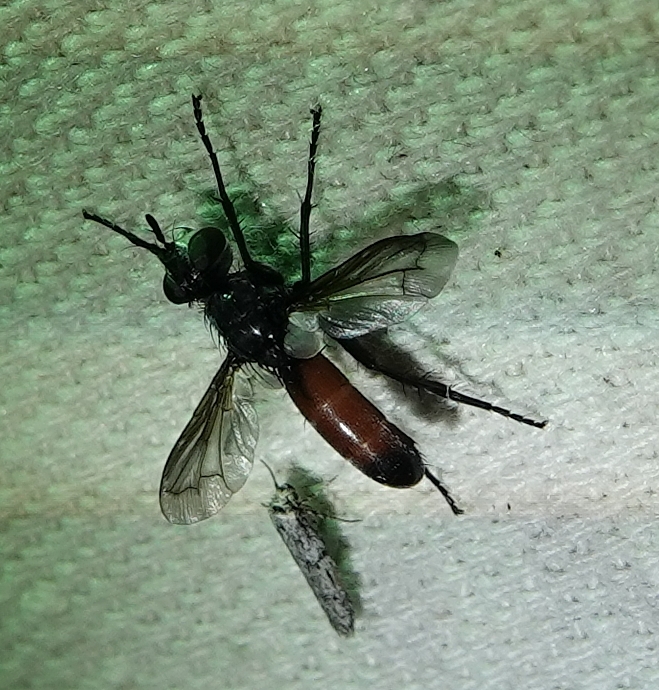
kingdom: Animalia
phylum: Arthropoda
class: Insecta
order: Diptera
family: Tachinidae
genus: Cylindromyia
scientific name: Cylindromyia
